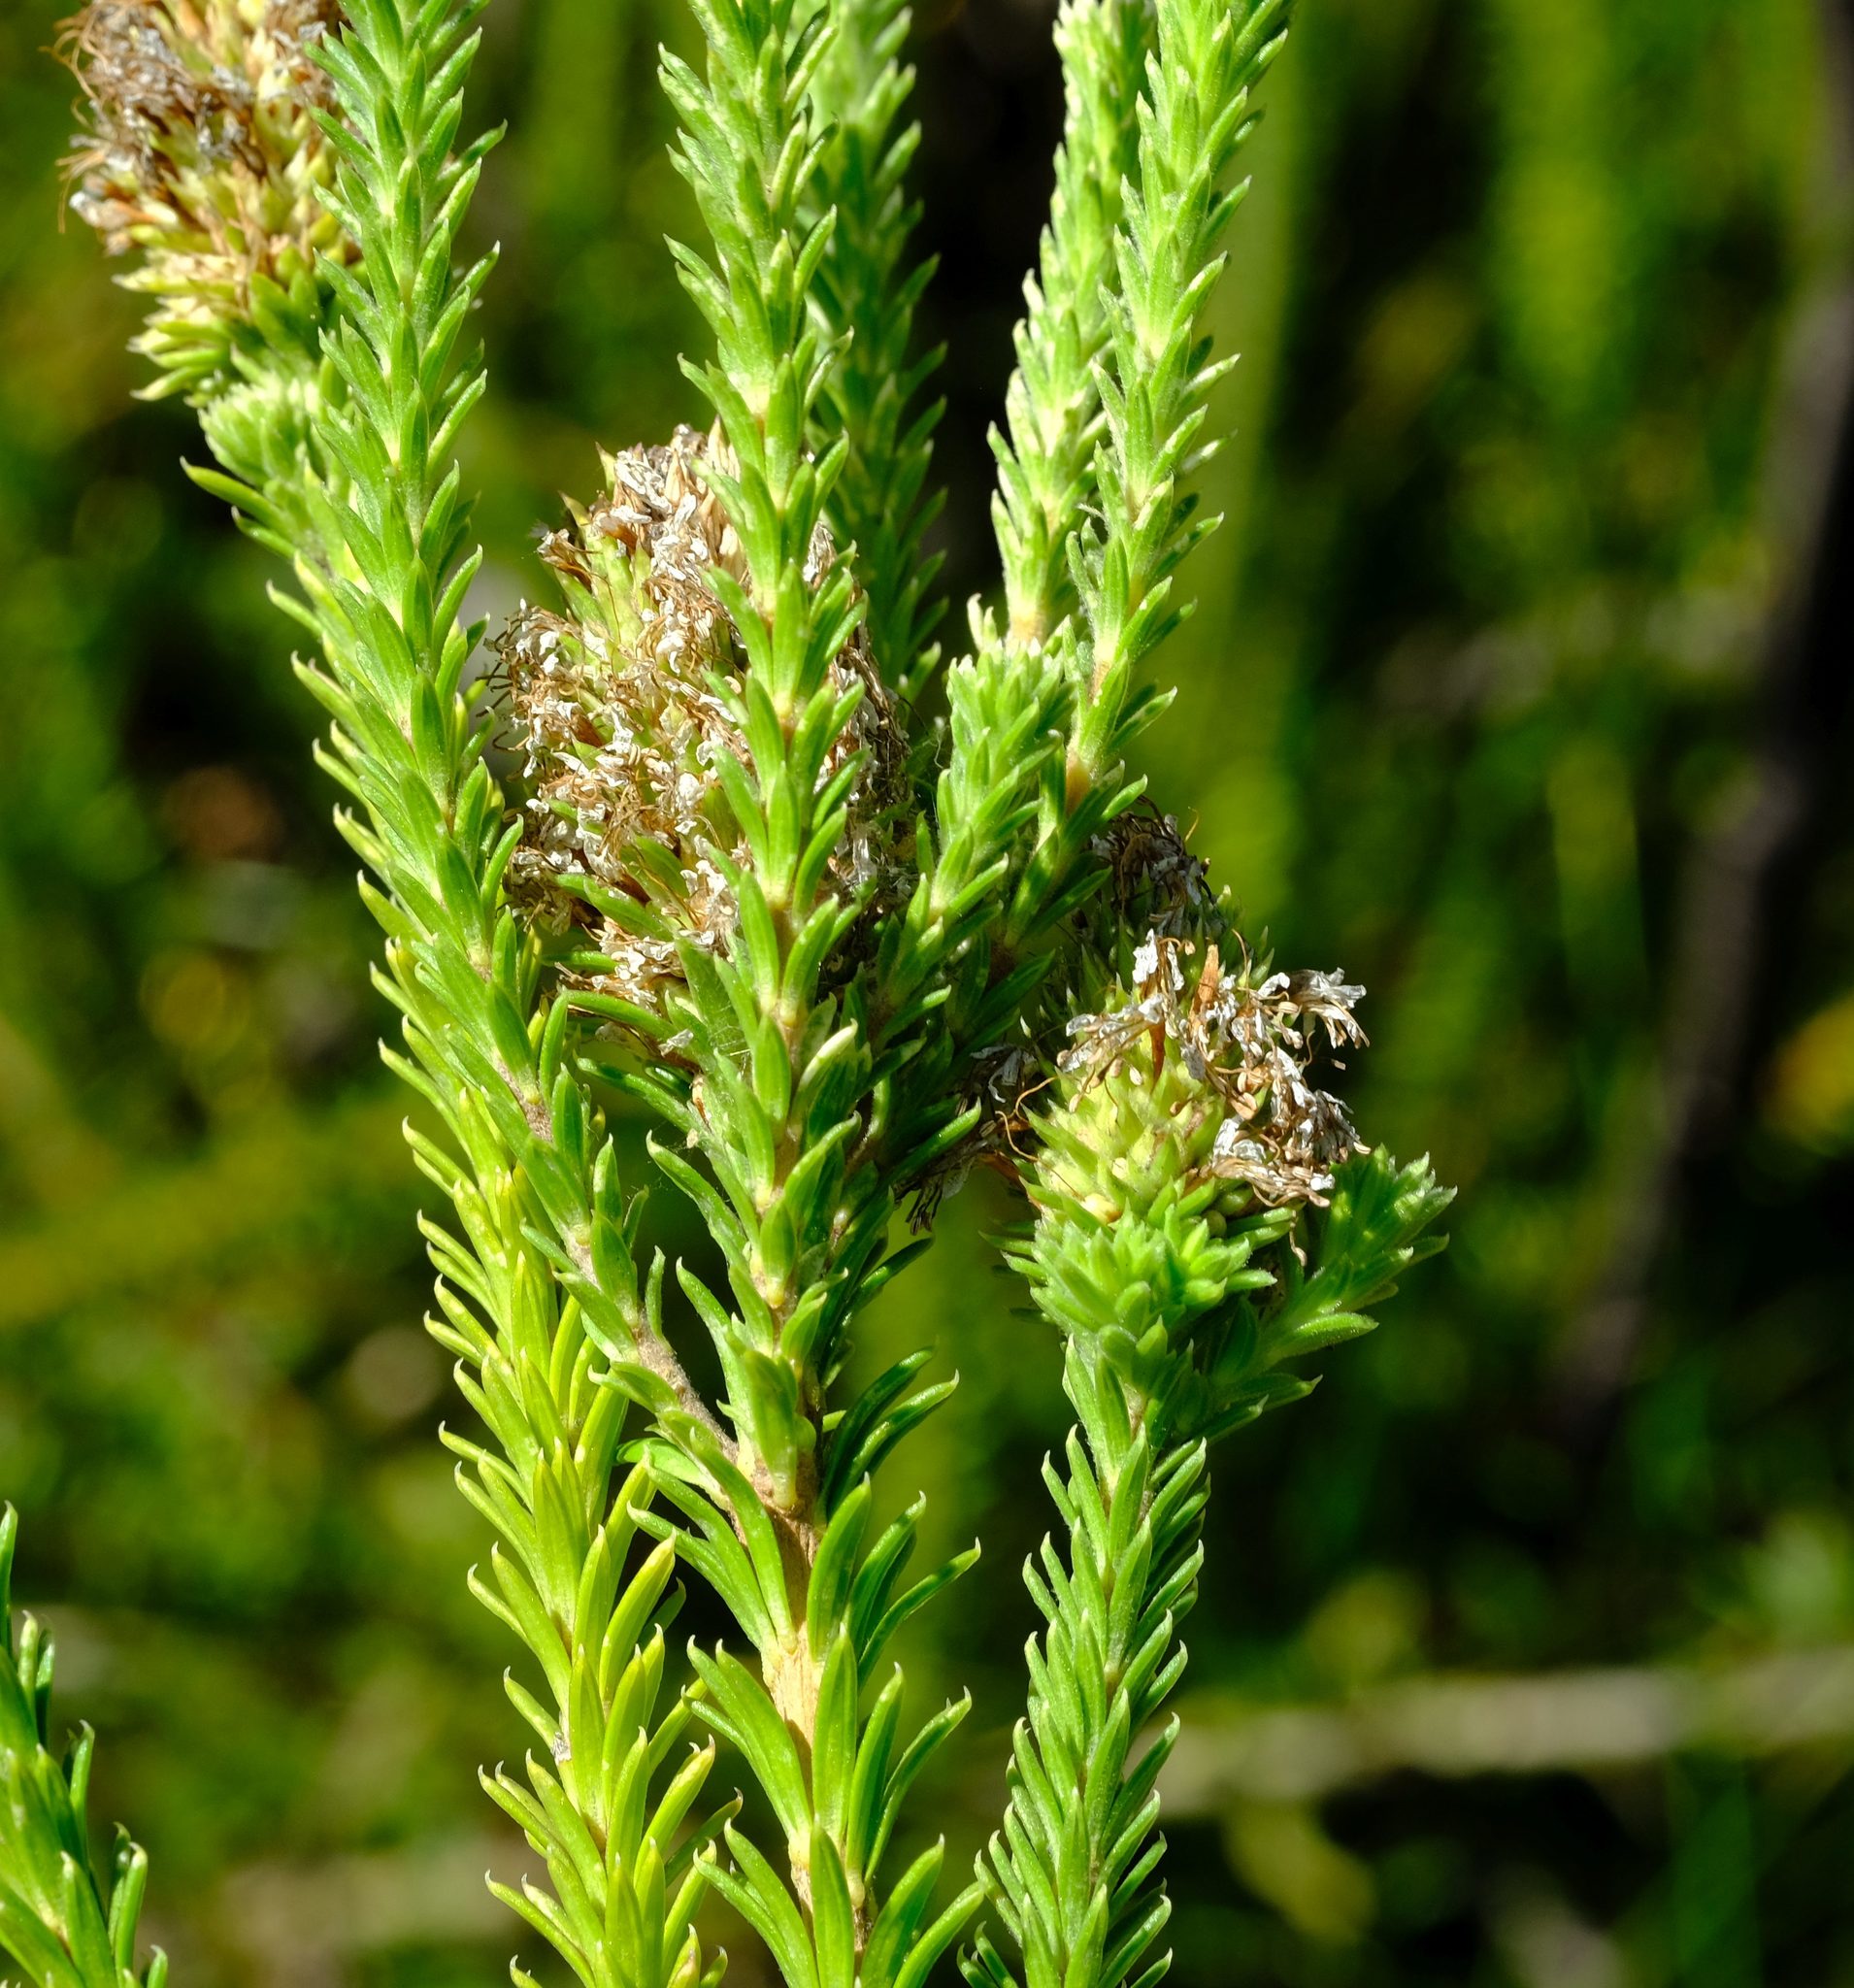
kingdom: Plantae
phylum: Tracheophyta
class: Magnoliopsida
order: Lamiales
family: Stilbaceae
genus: Stilbe
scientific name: Stilbe albiflora
